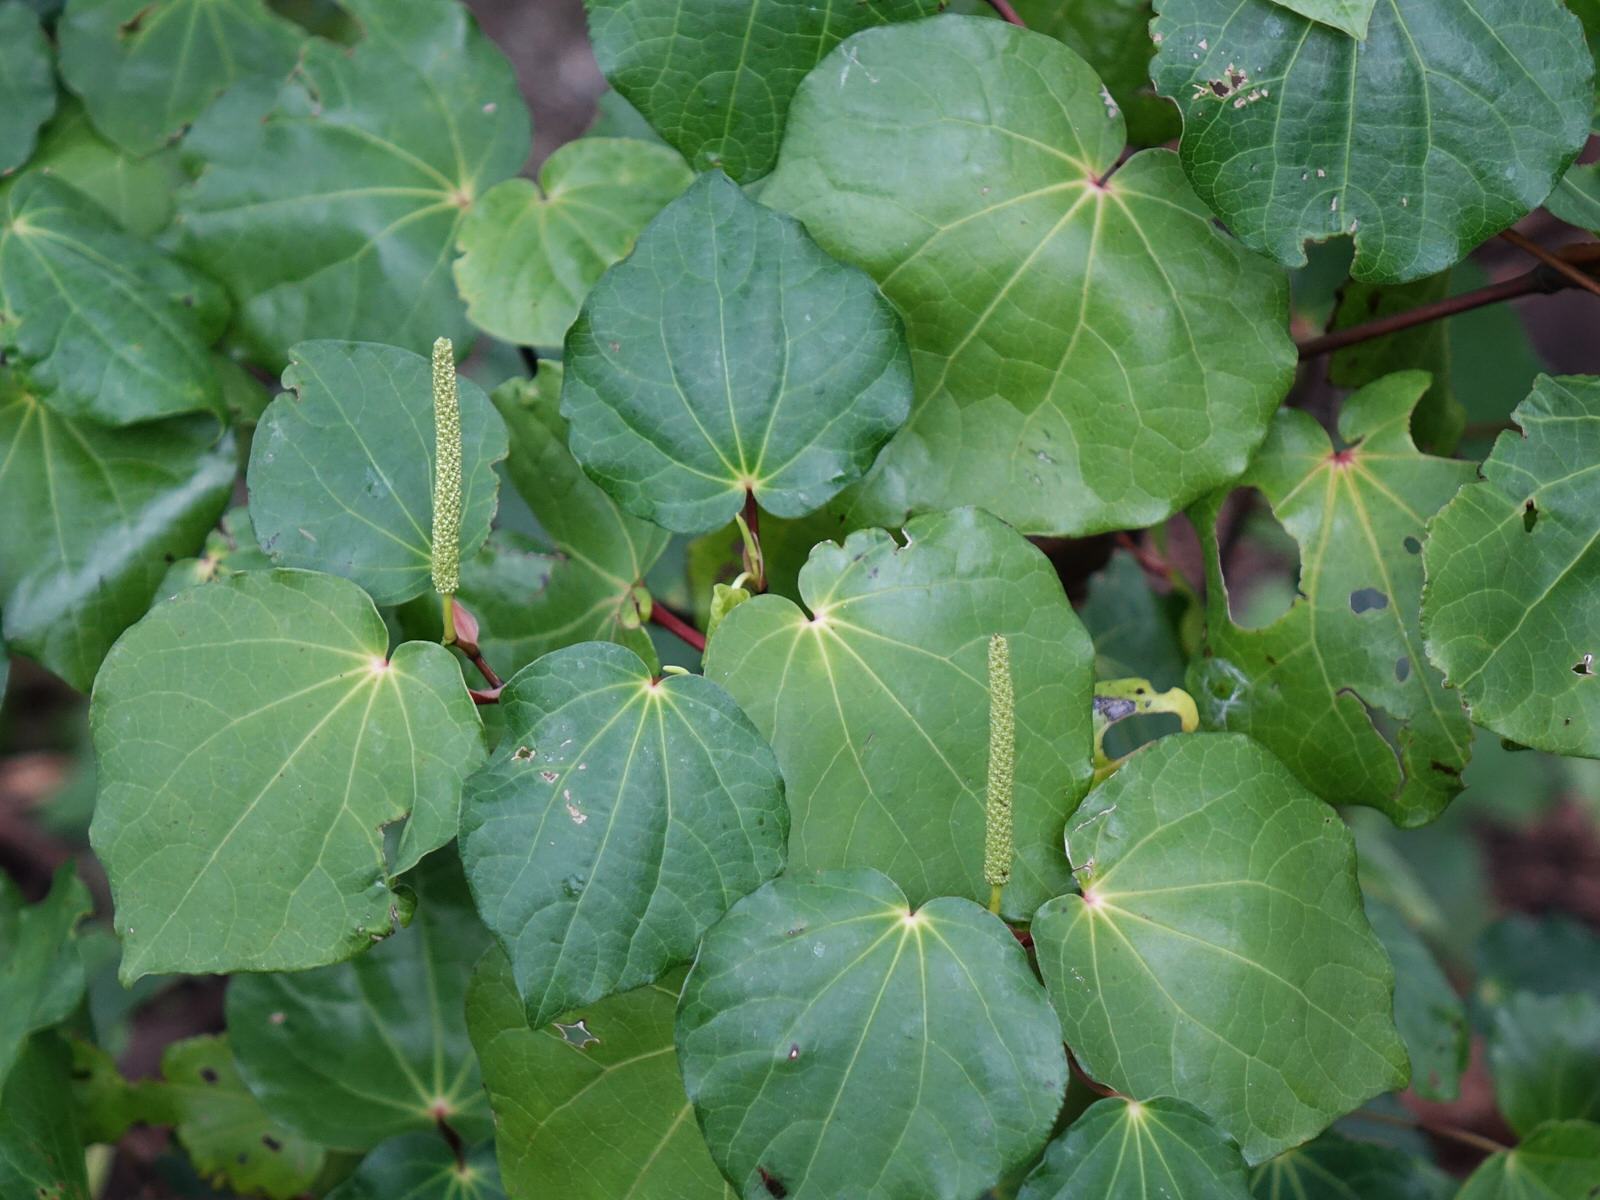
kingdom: Plantae
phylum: Tracheophyta
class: Magnoliopsida
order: Piperales
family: Piperaceae
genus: Macropiper
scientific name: Macropiper excelsum
